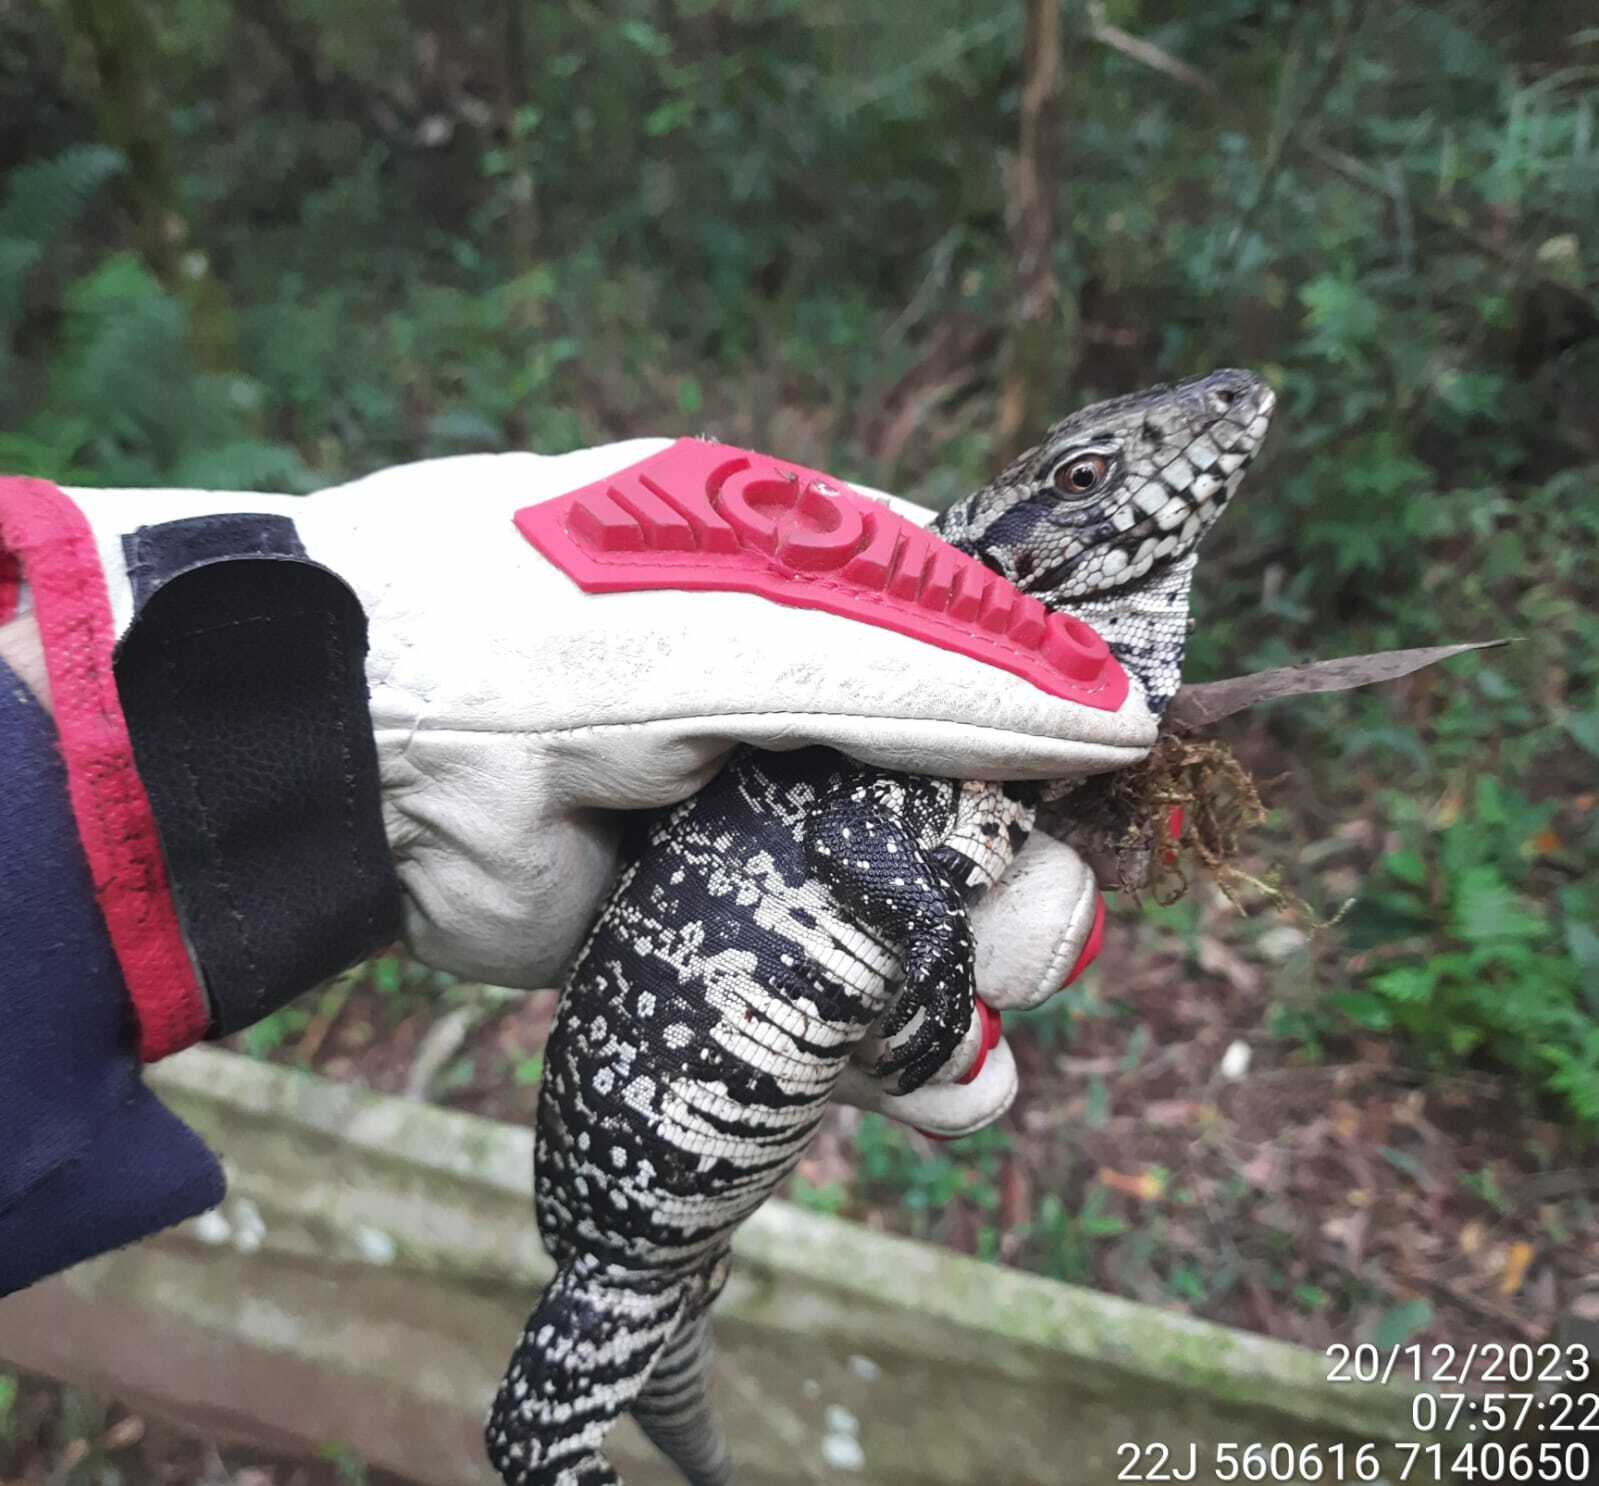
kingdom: Animalia
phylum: Chordata
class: Squamata
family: Teiidae
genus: Salvator
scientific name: Salvator merianae
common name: Argentine black and white tegu
